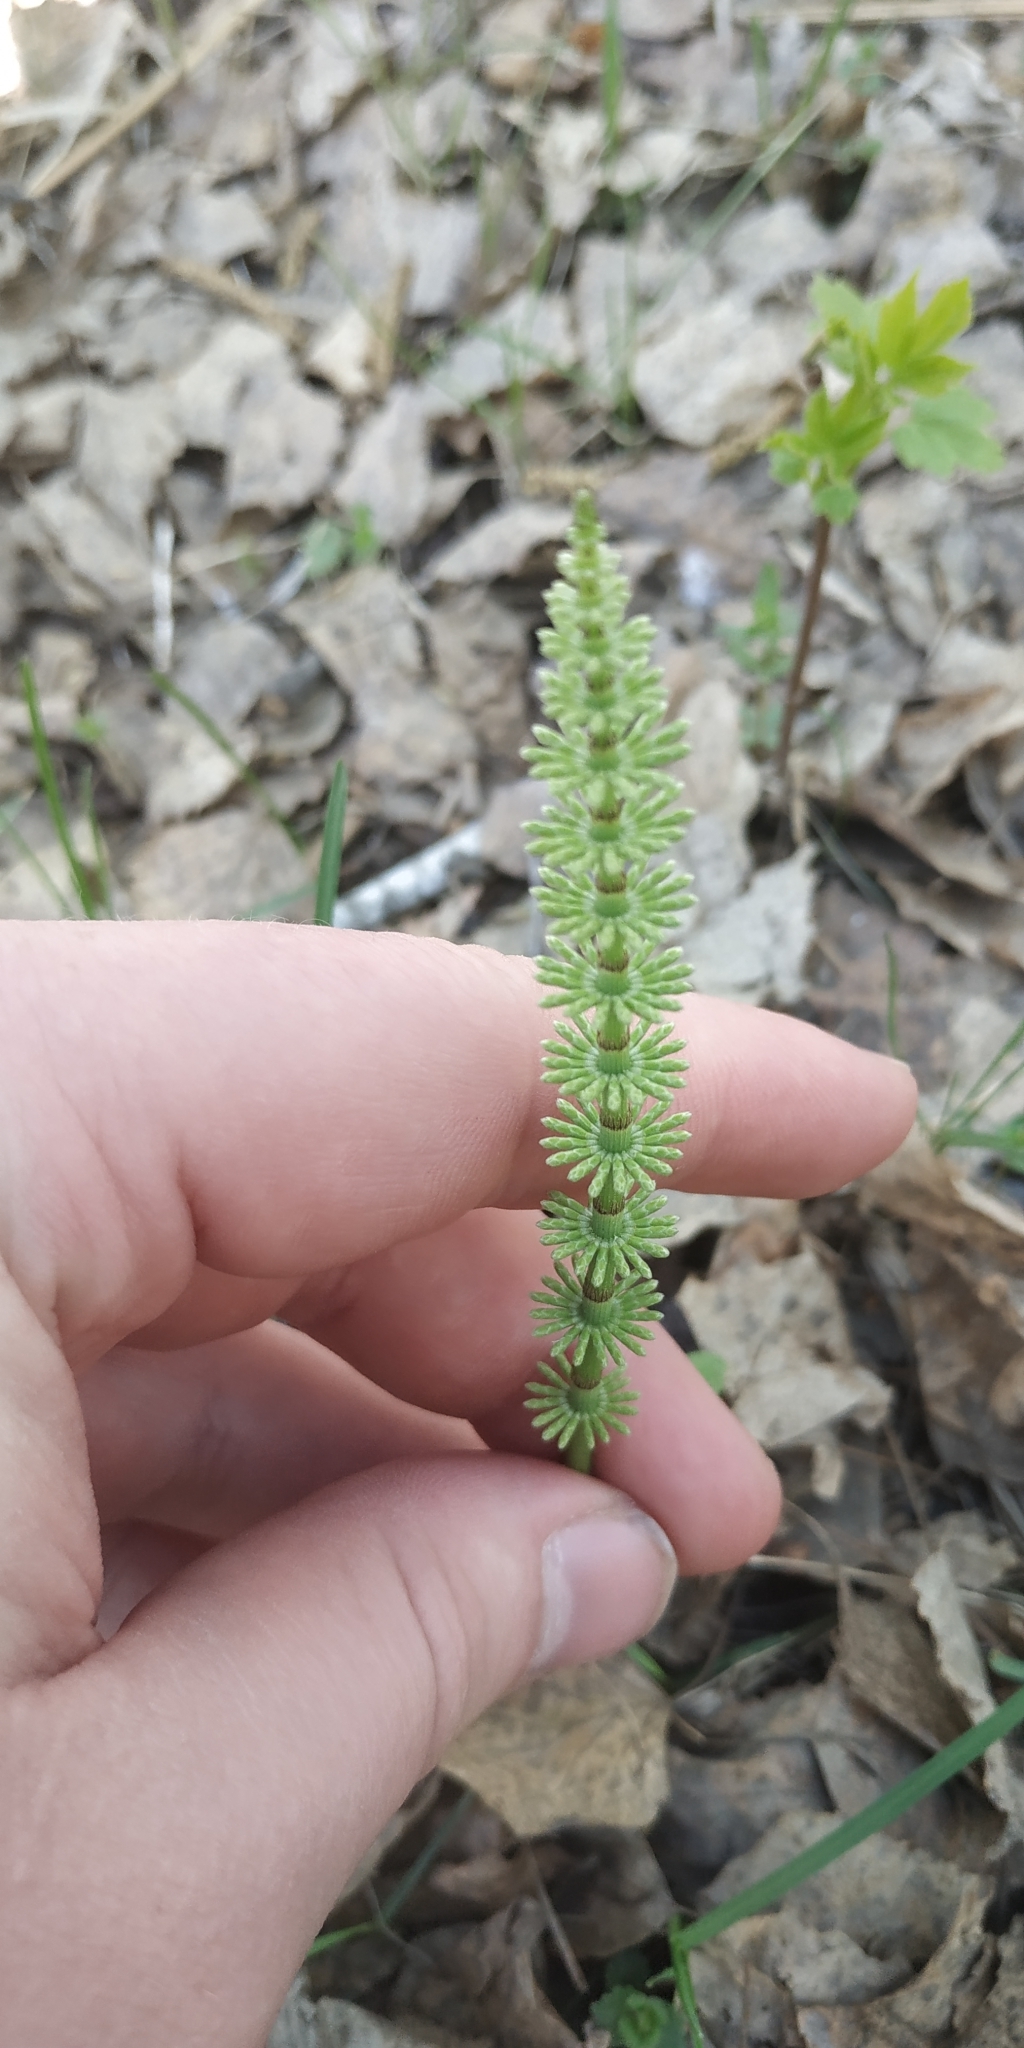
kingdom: Plantae
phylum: Tracheophyta
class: Polypodiopsida
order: Equisetales
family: Equisetaceae
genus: Equisetum
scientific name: Equisetum pratense
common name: Meadow horsetail
